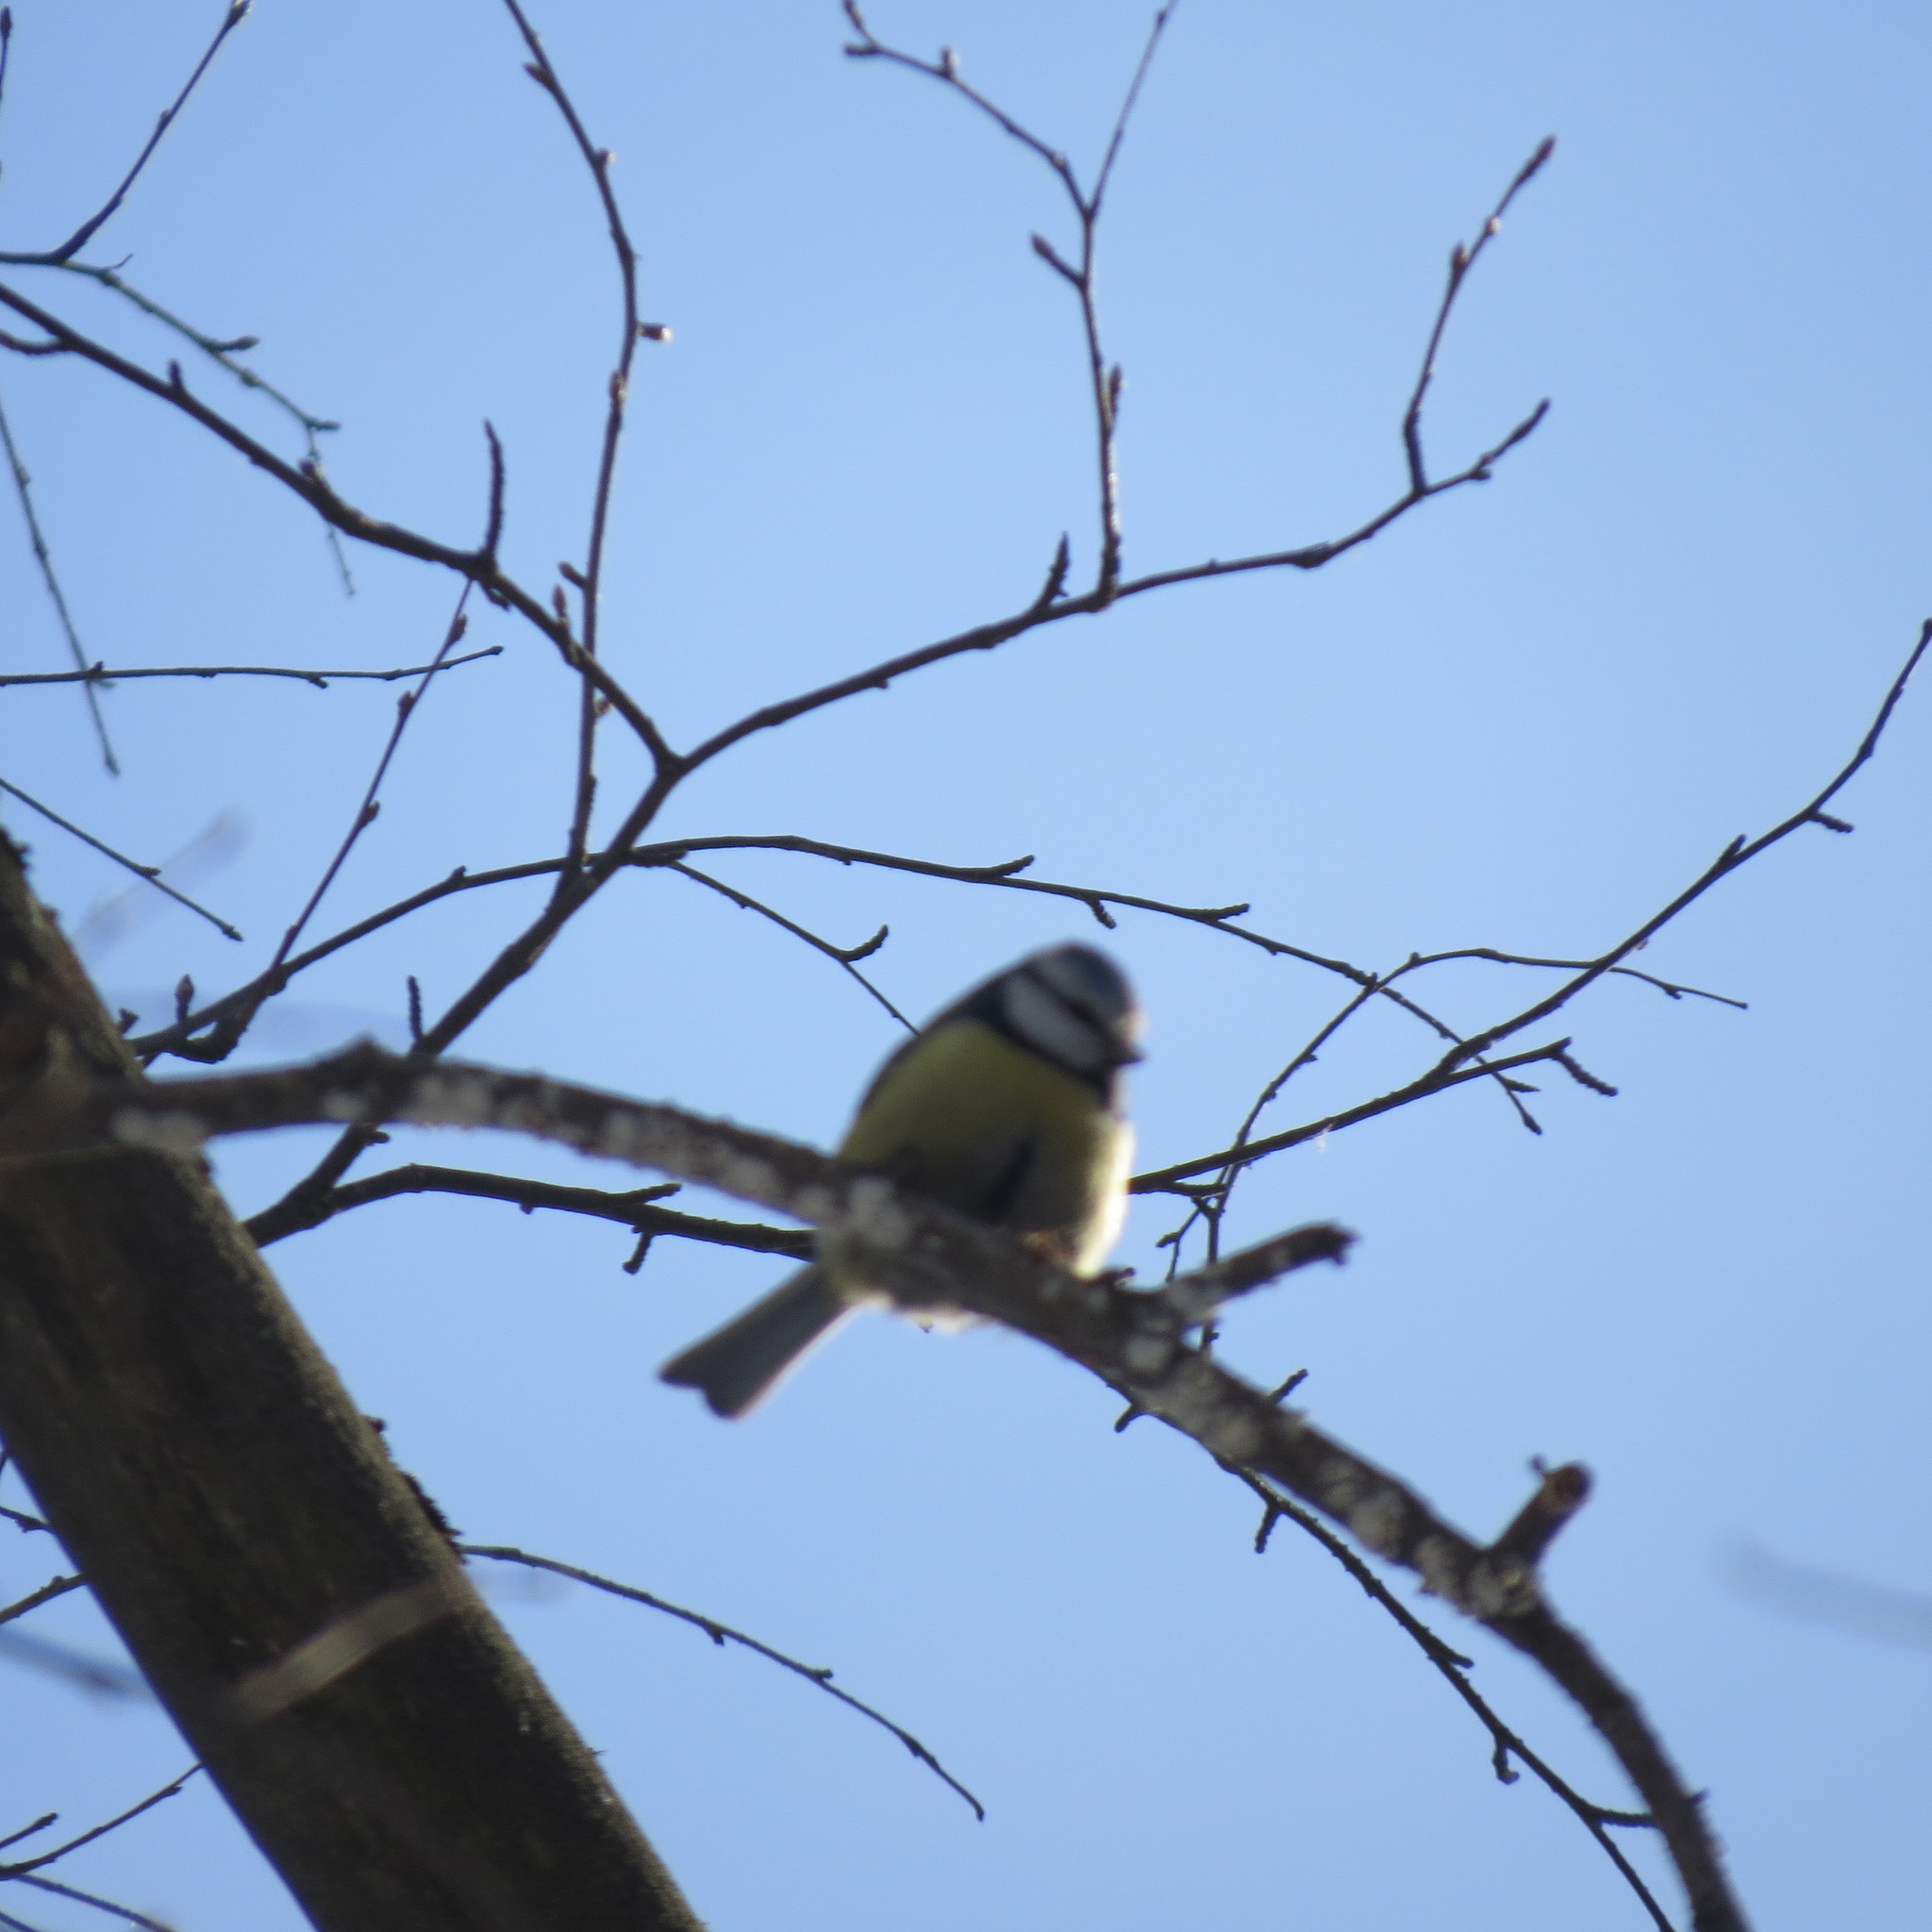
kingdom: Animalia
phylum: Chordata
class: Aves
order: Passeriformes
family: Paridae
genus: Cyanistes
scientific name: Cyanistes caeruleus
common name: Eurasian blue tit
